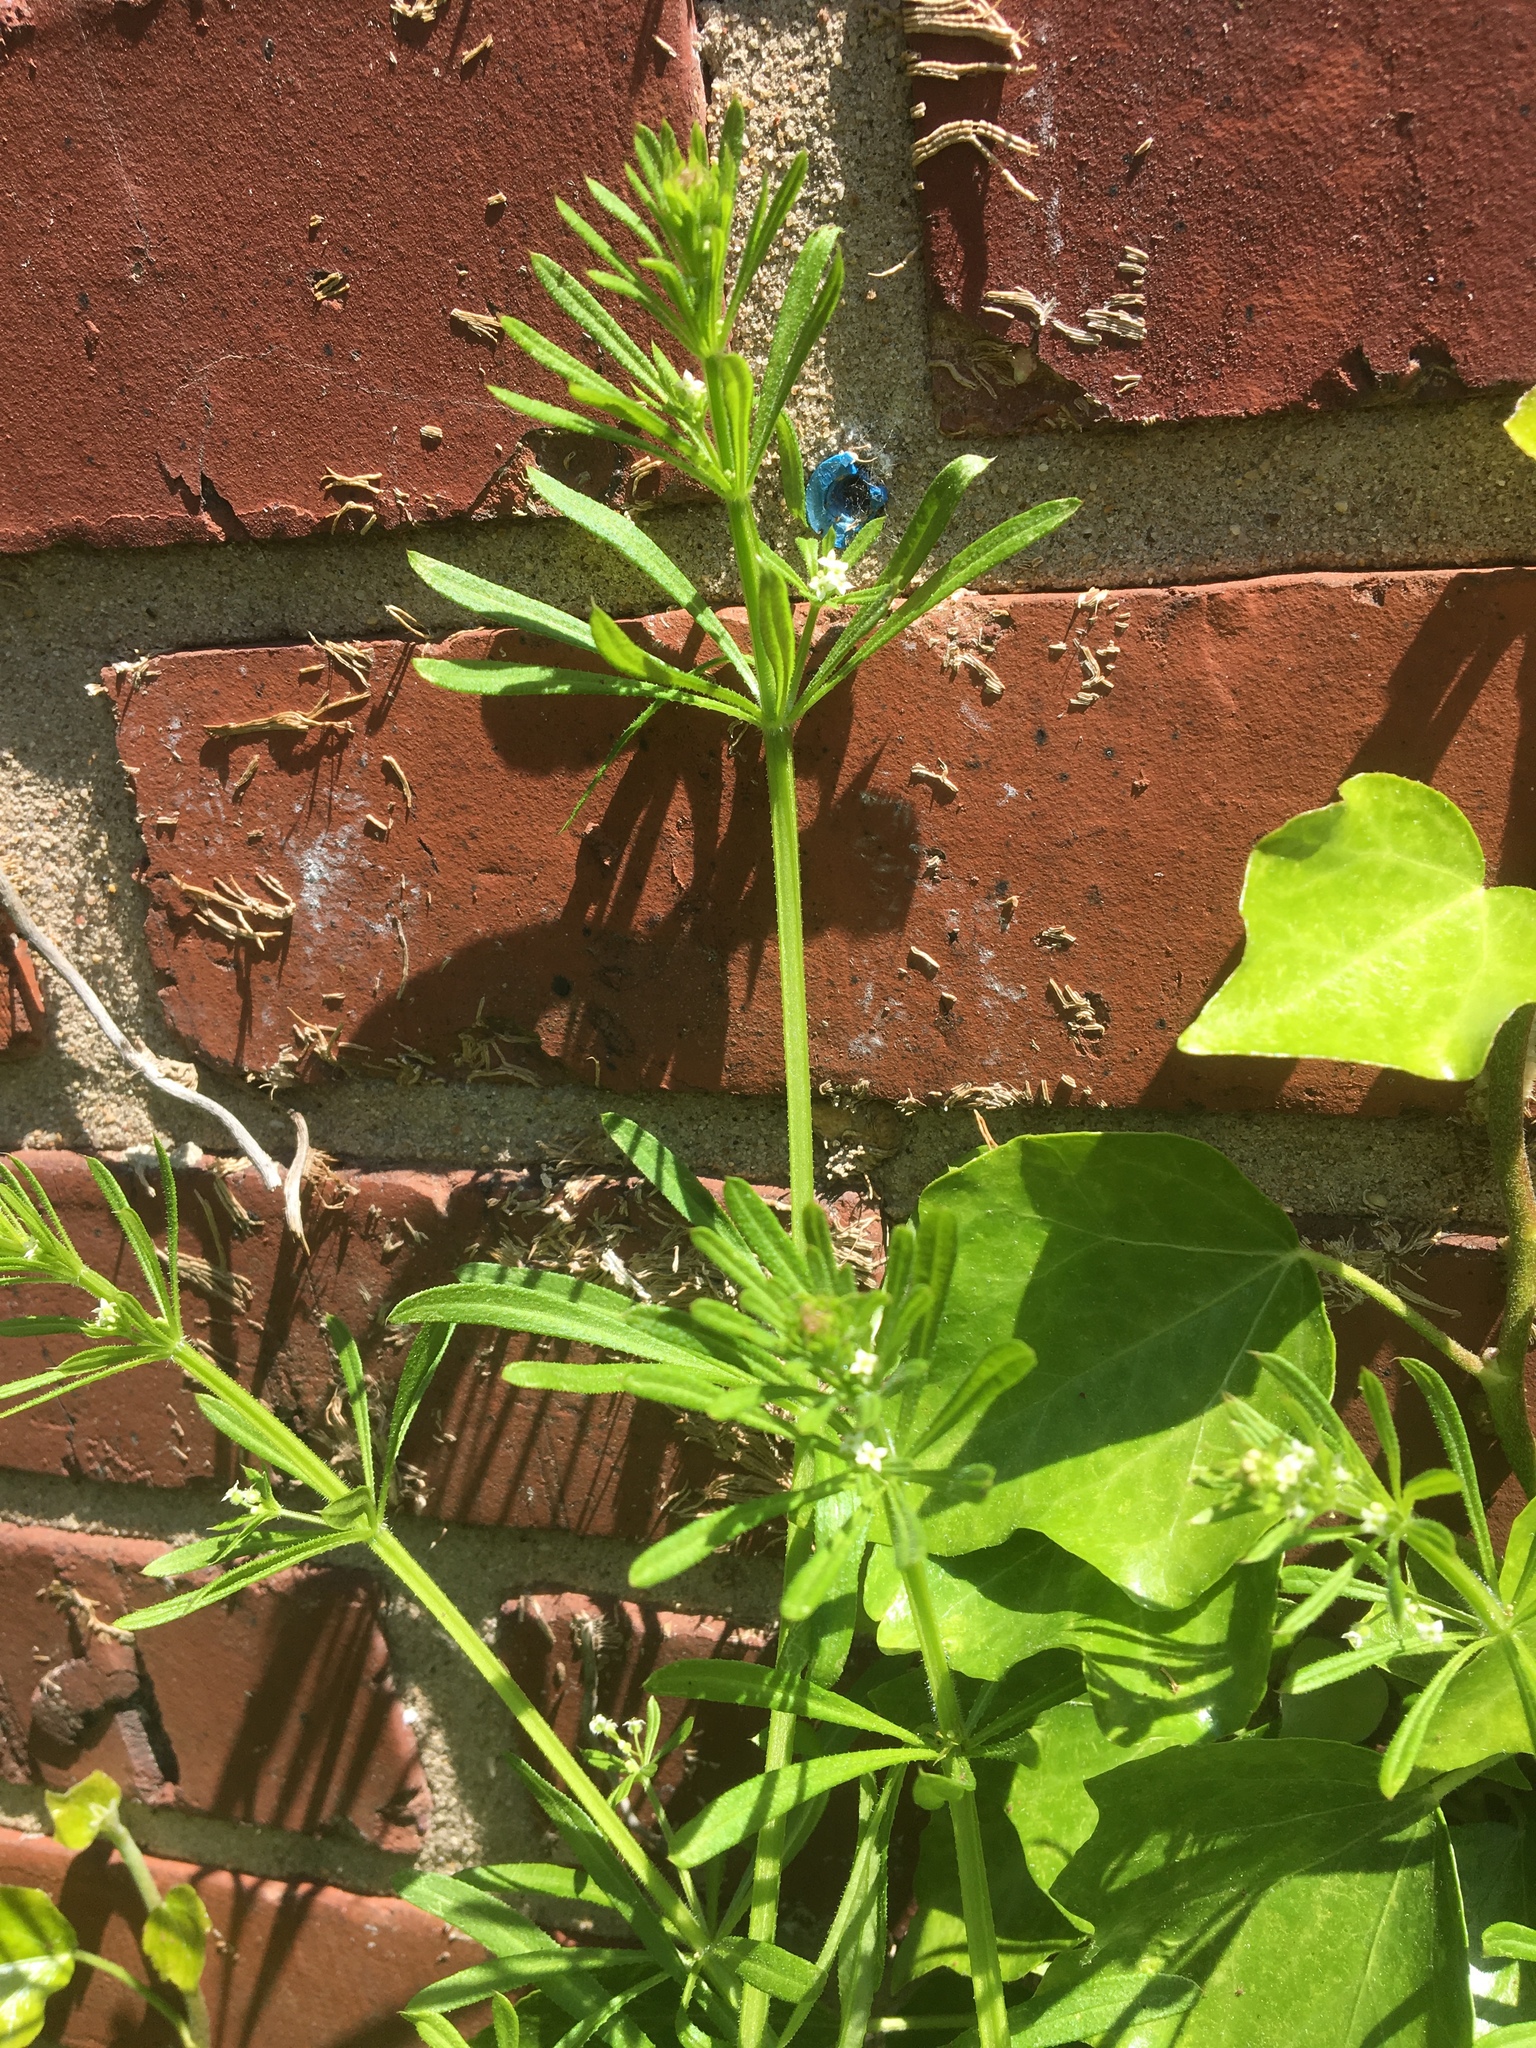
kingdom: Plantae
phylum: Tracheophyta
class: Magnoliopsida
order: Gentianales
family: Rubiaceae
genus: Galium
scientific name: Galium aparine
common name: Cleavers
